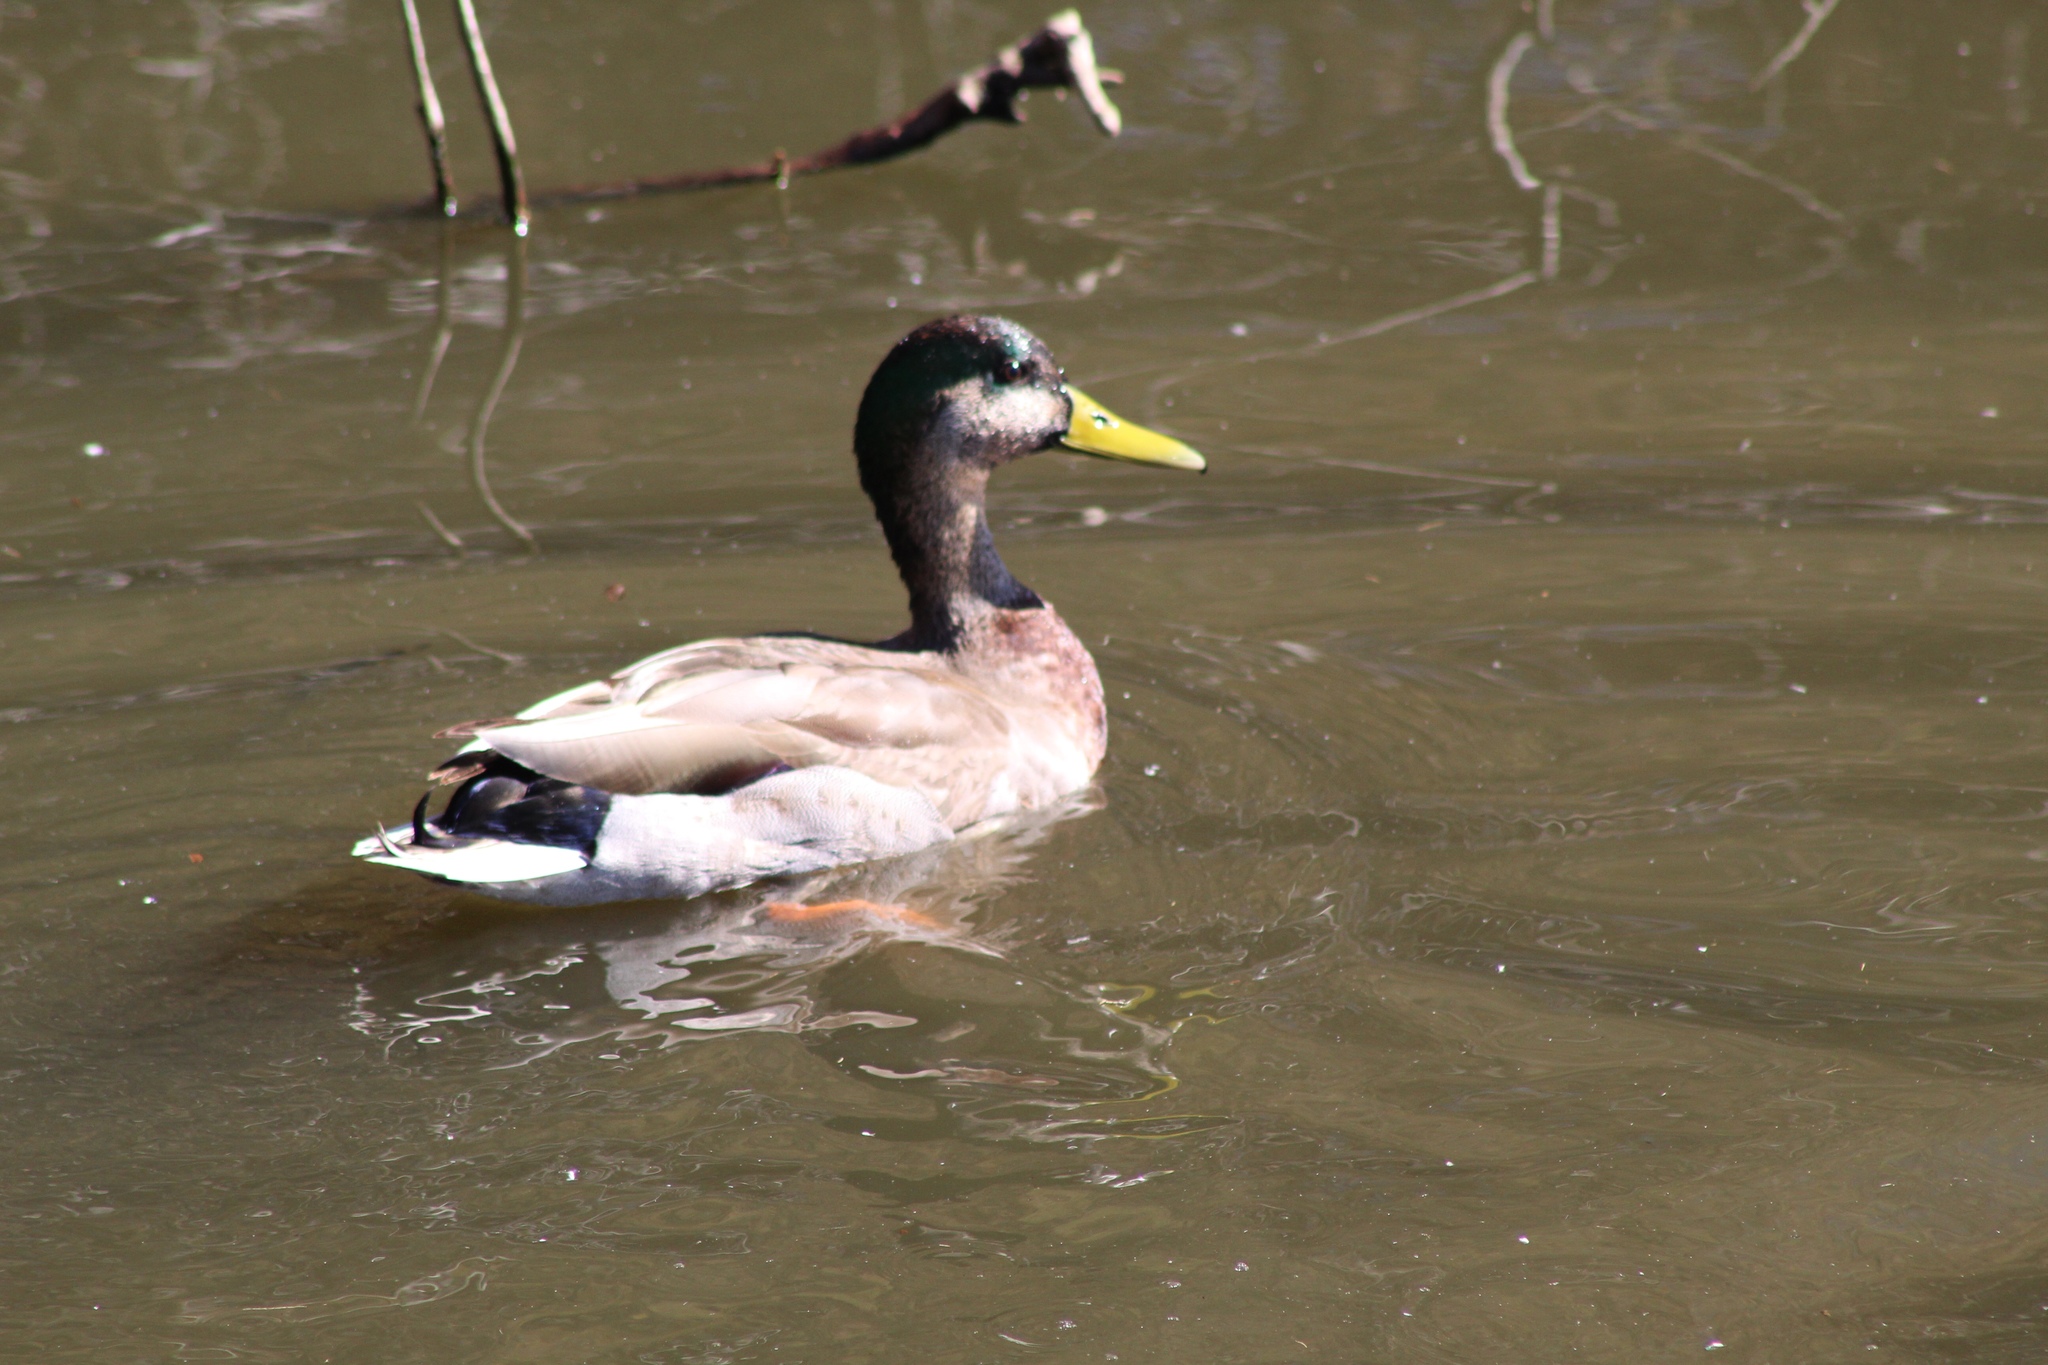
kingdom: Animalia
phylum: Chordata
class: Aves
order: Anseriformes
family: Anatidae
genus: Anas
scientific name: Anas platyrhynchos
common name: Mallard
